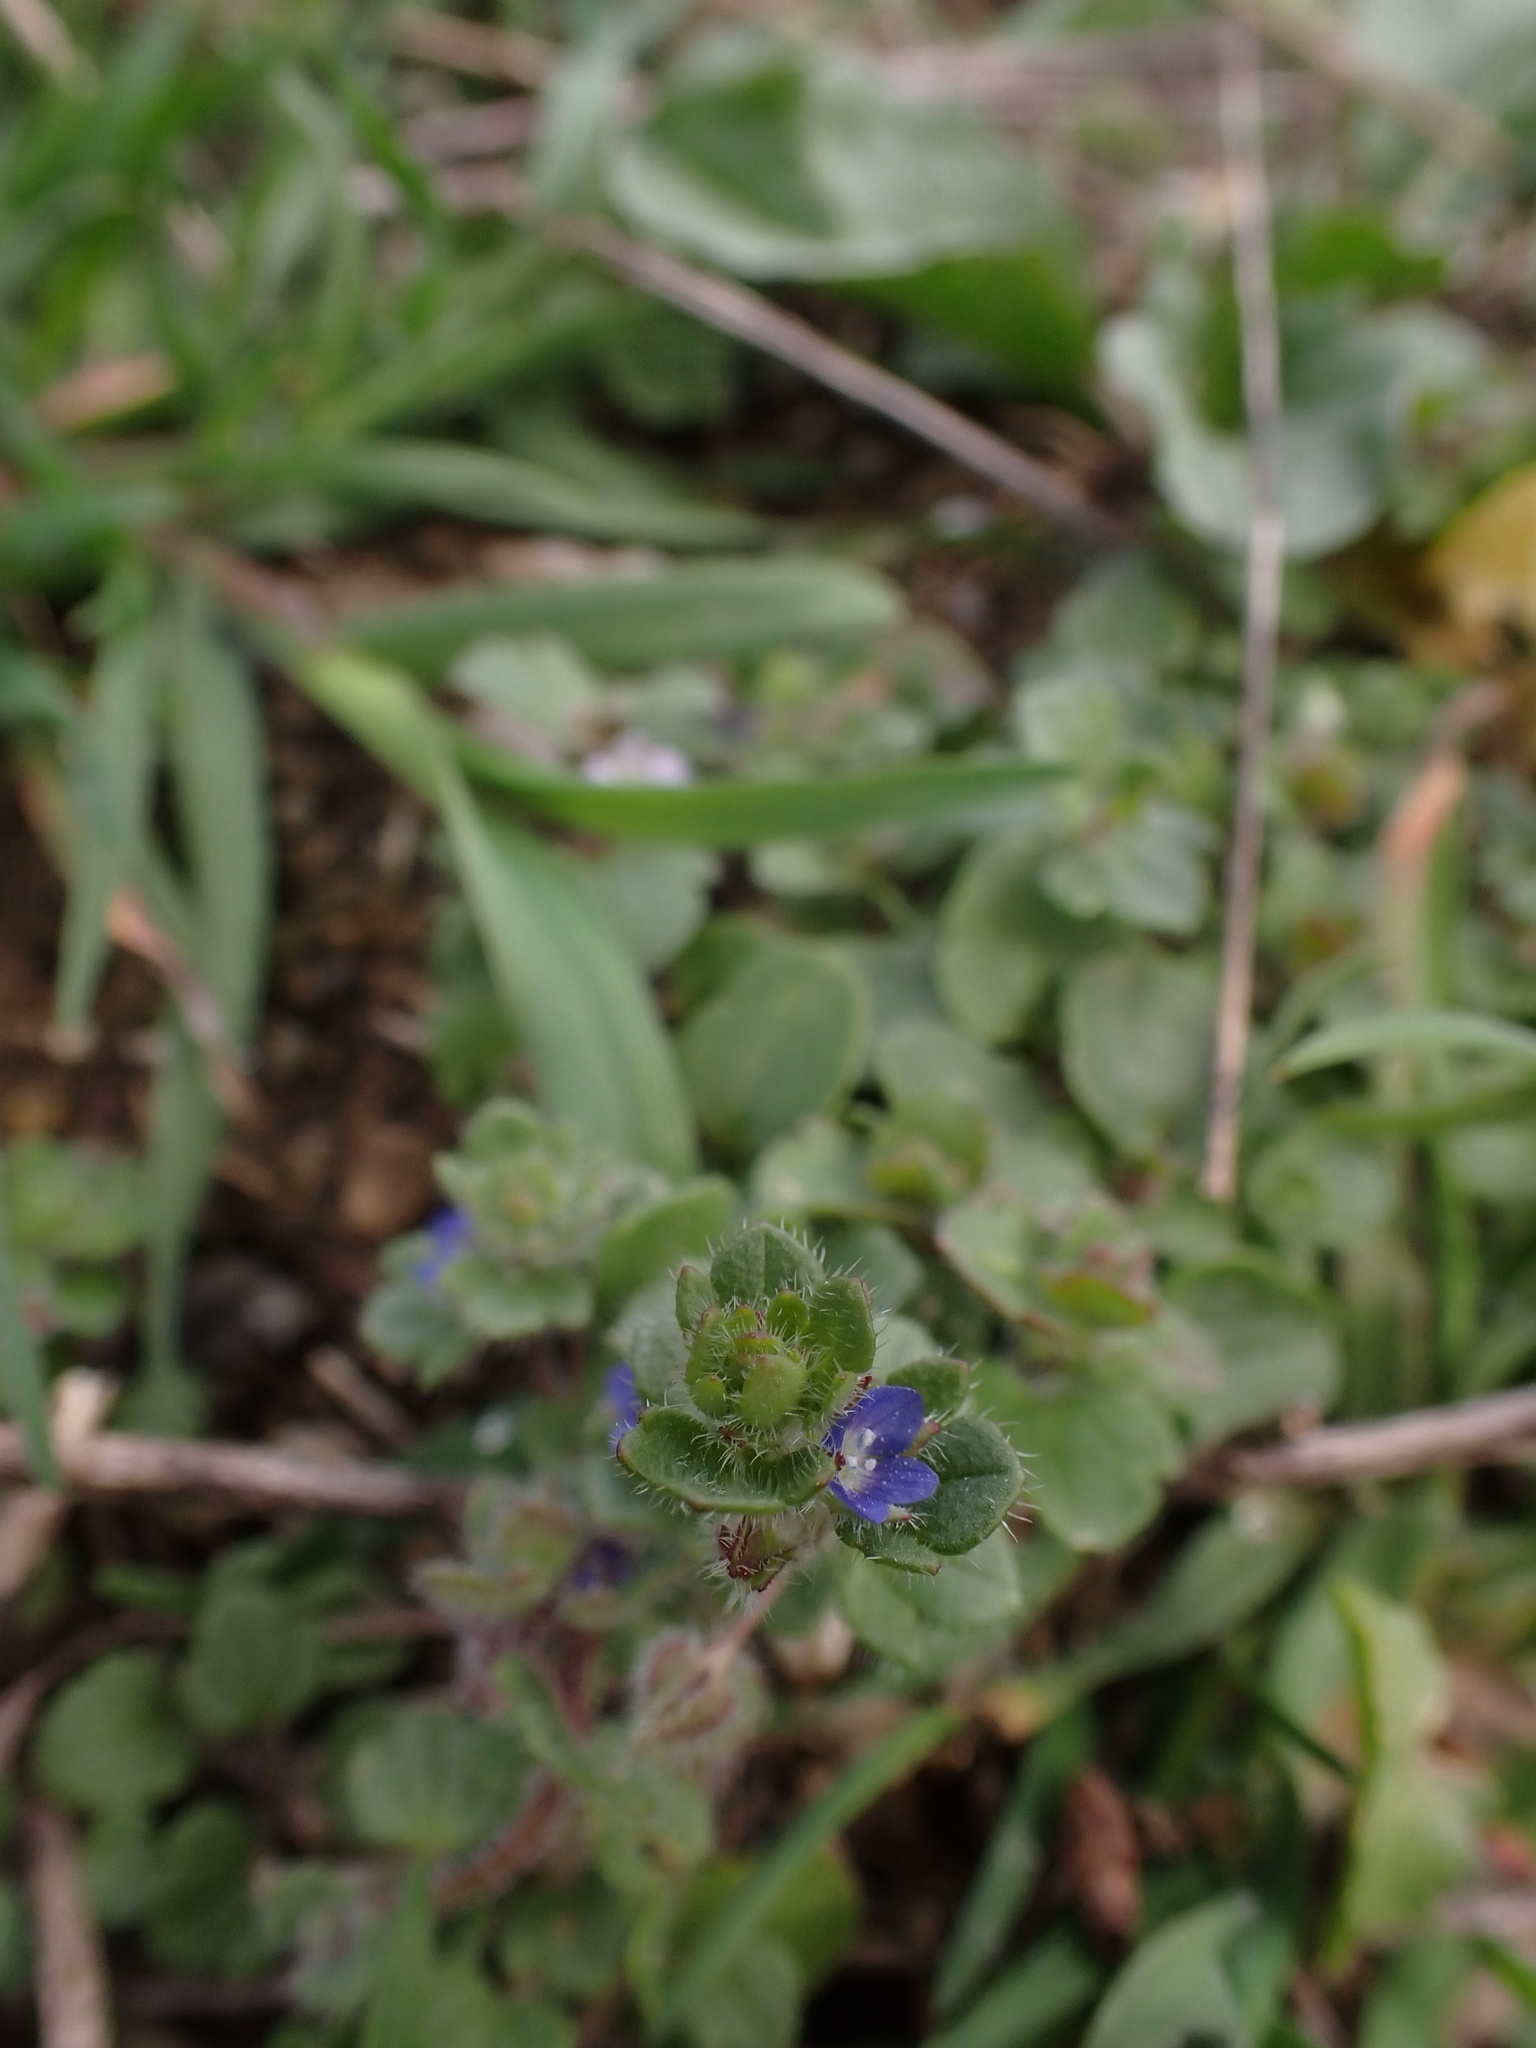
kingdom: Plantae
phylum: Tracheophyta
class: Magnoliopsida
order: Lamiales
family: Plantaginaceae
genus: Veronica
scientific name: Veronica triloba
